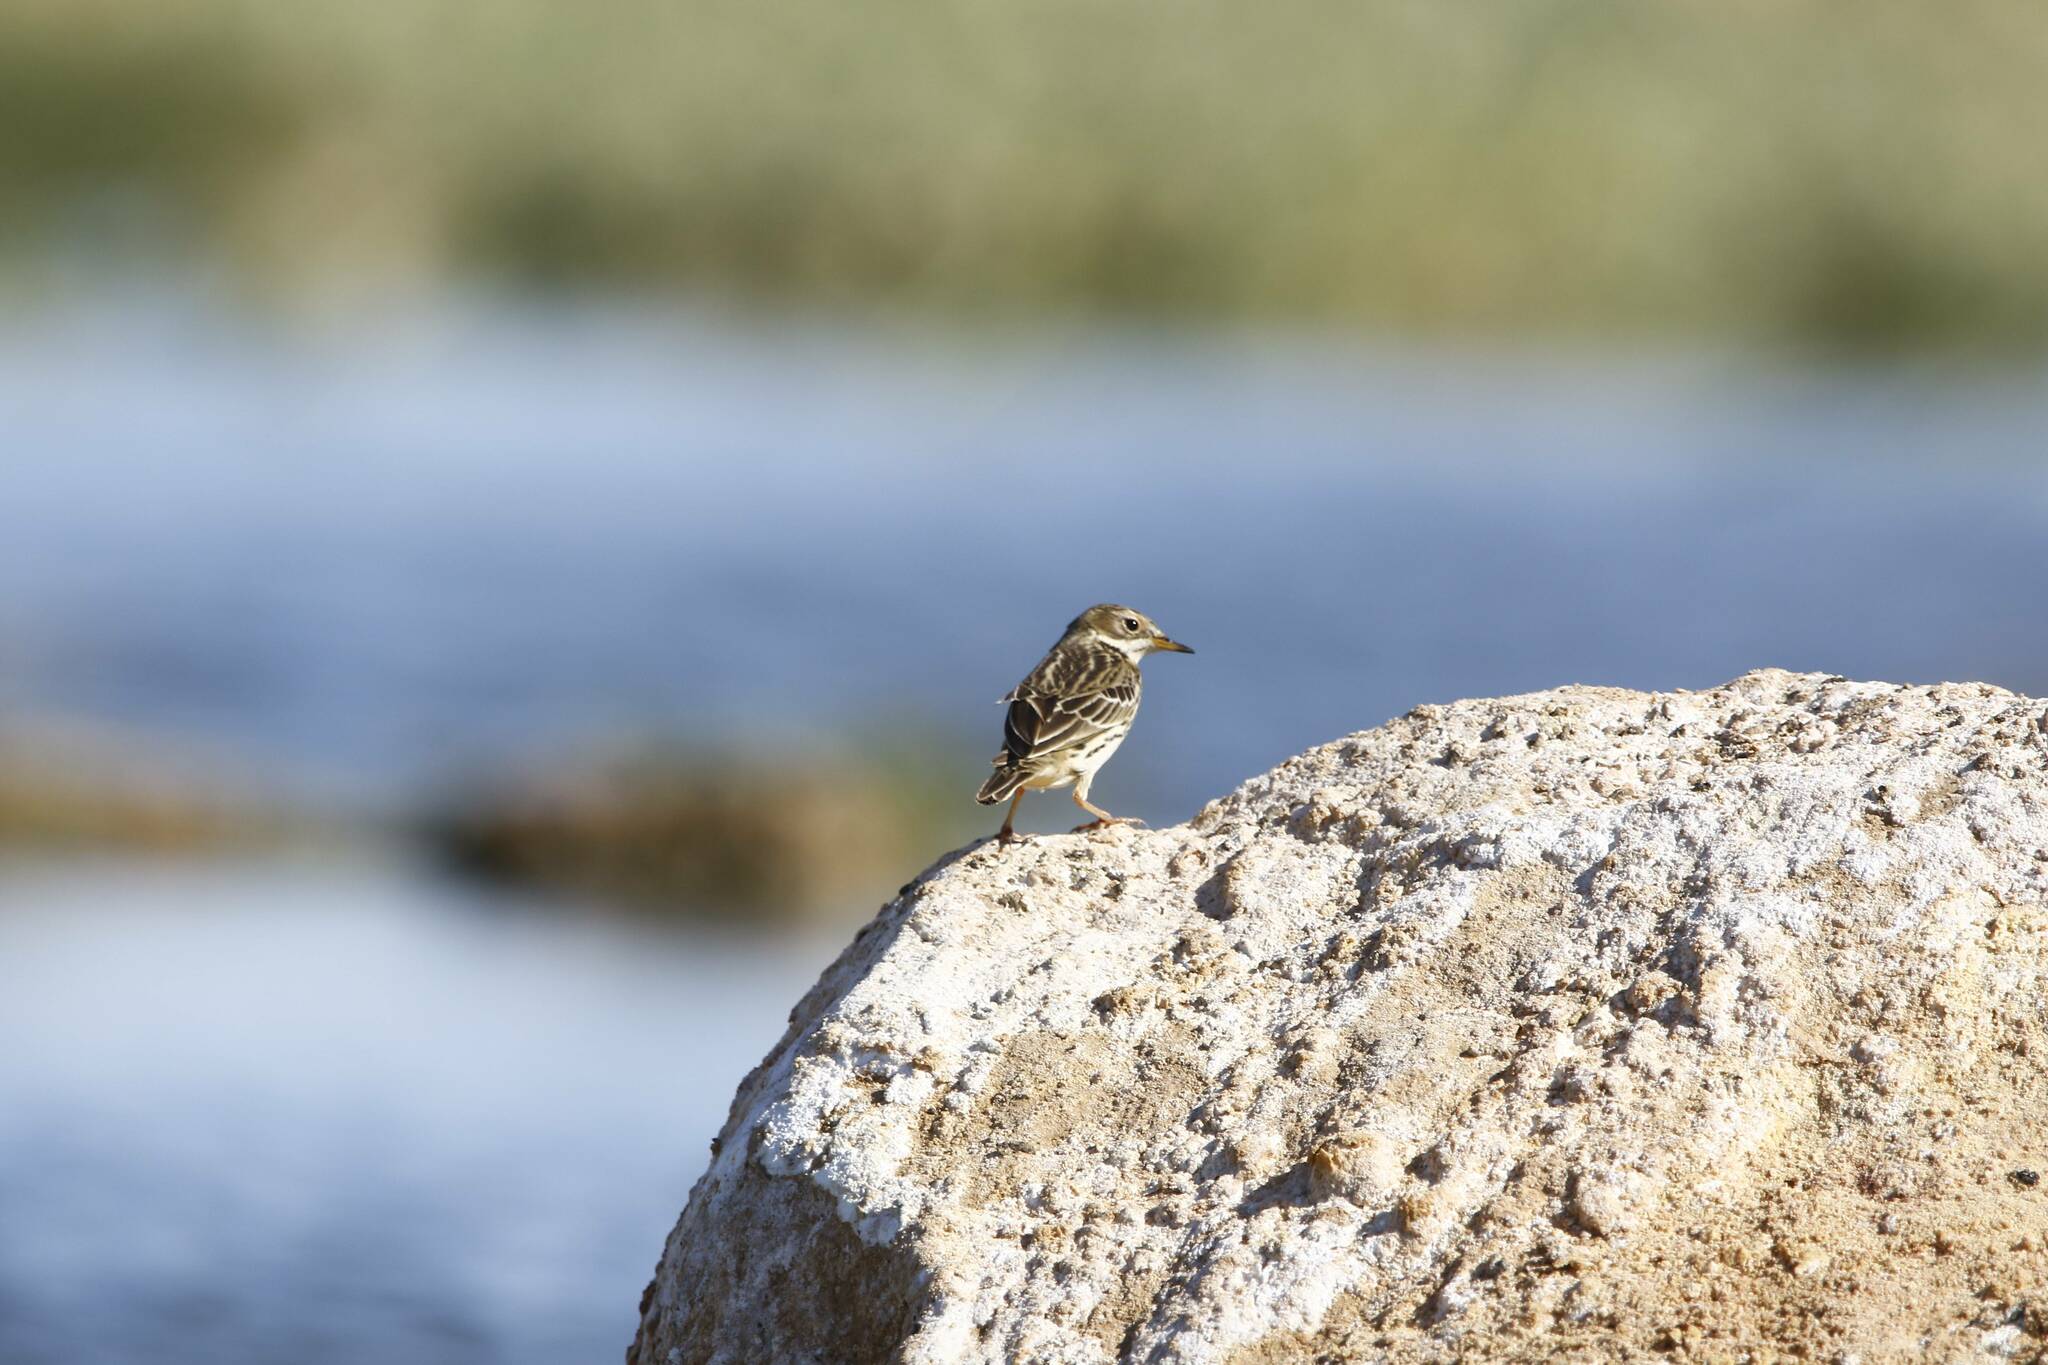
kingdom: Animalia
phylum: Chordata
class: Aves
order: Passeriformes
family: Motacillidae
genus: Anthus
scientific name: Anthus cervinus
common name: Red-throated pipit
